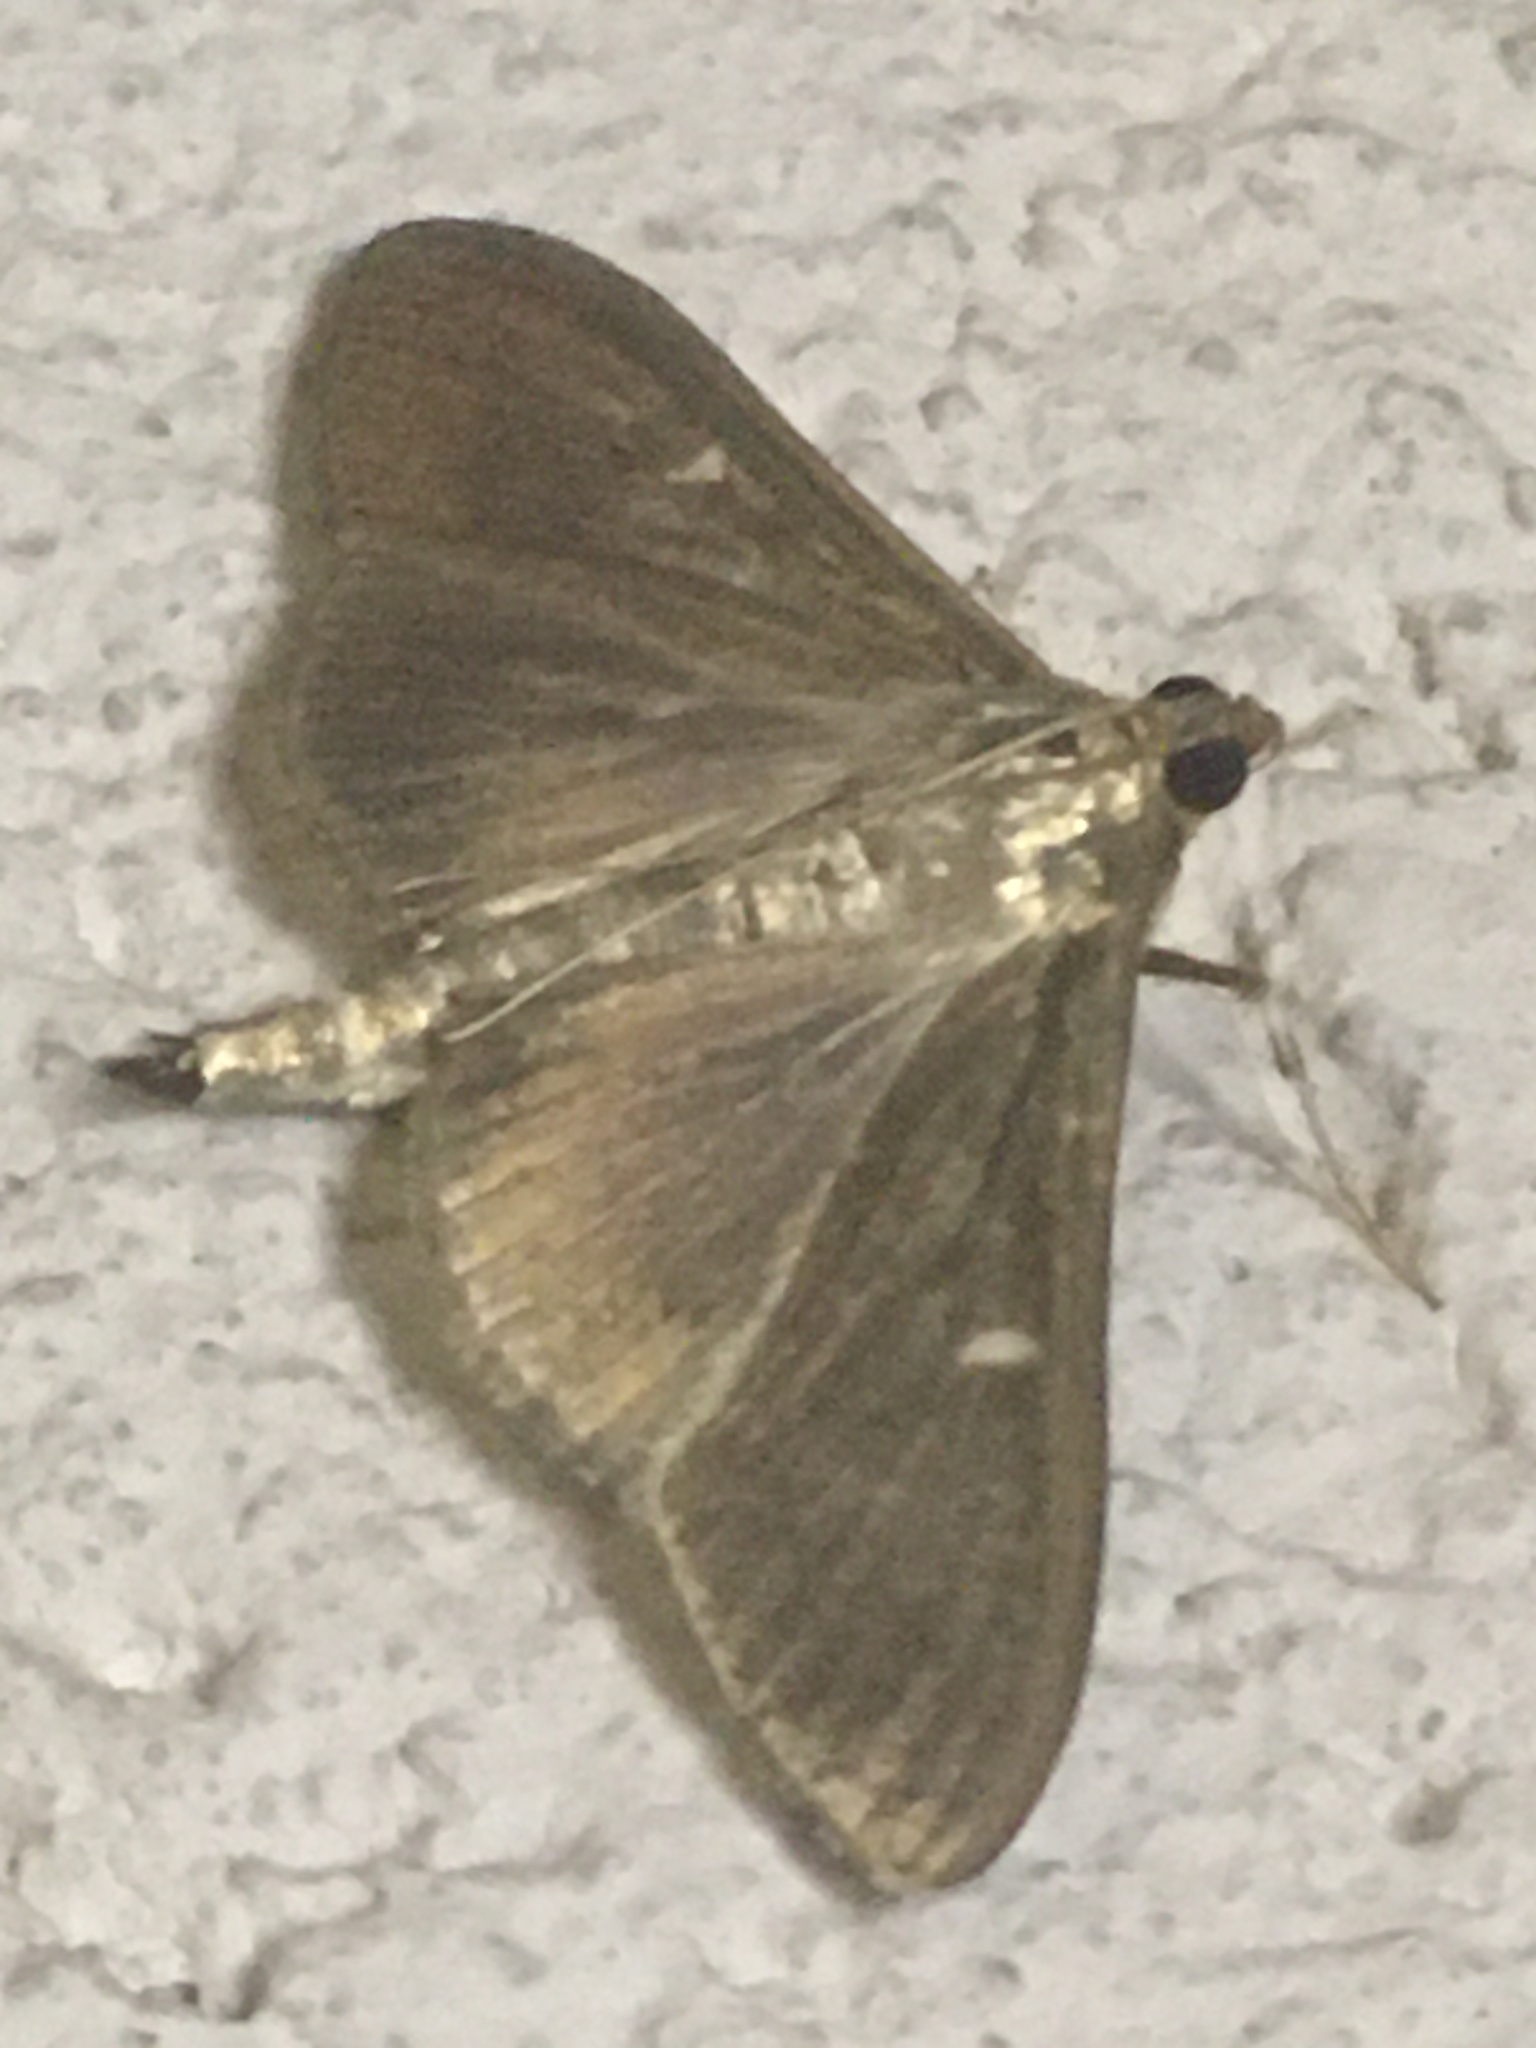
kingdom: Animalia
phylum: Arthropoda
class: Insecta
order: Lepidoptera
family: Crambidae
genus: Cydalima
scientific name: Cydalima perspectalis
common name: Box tree moth
